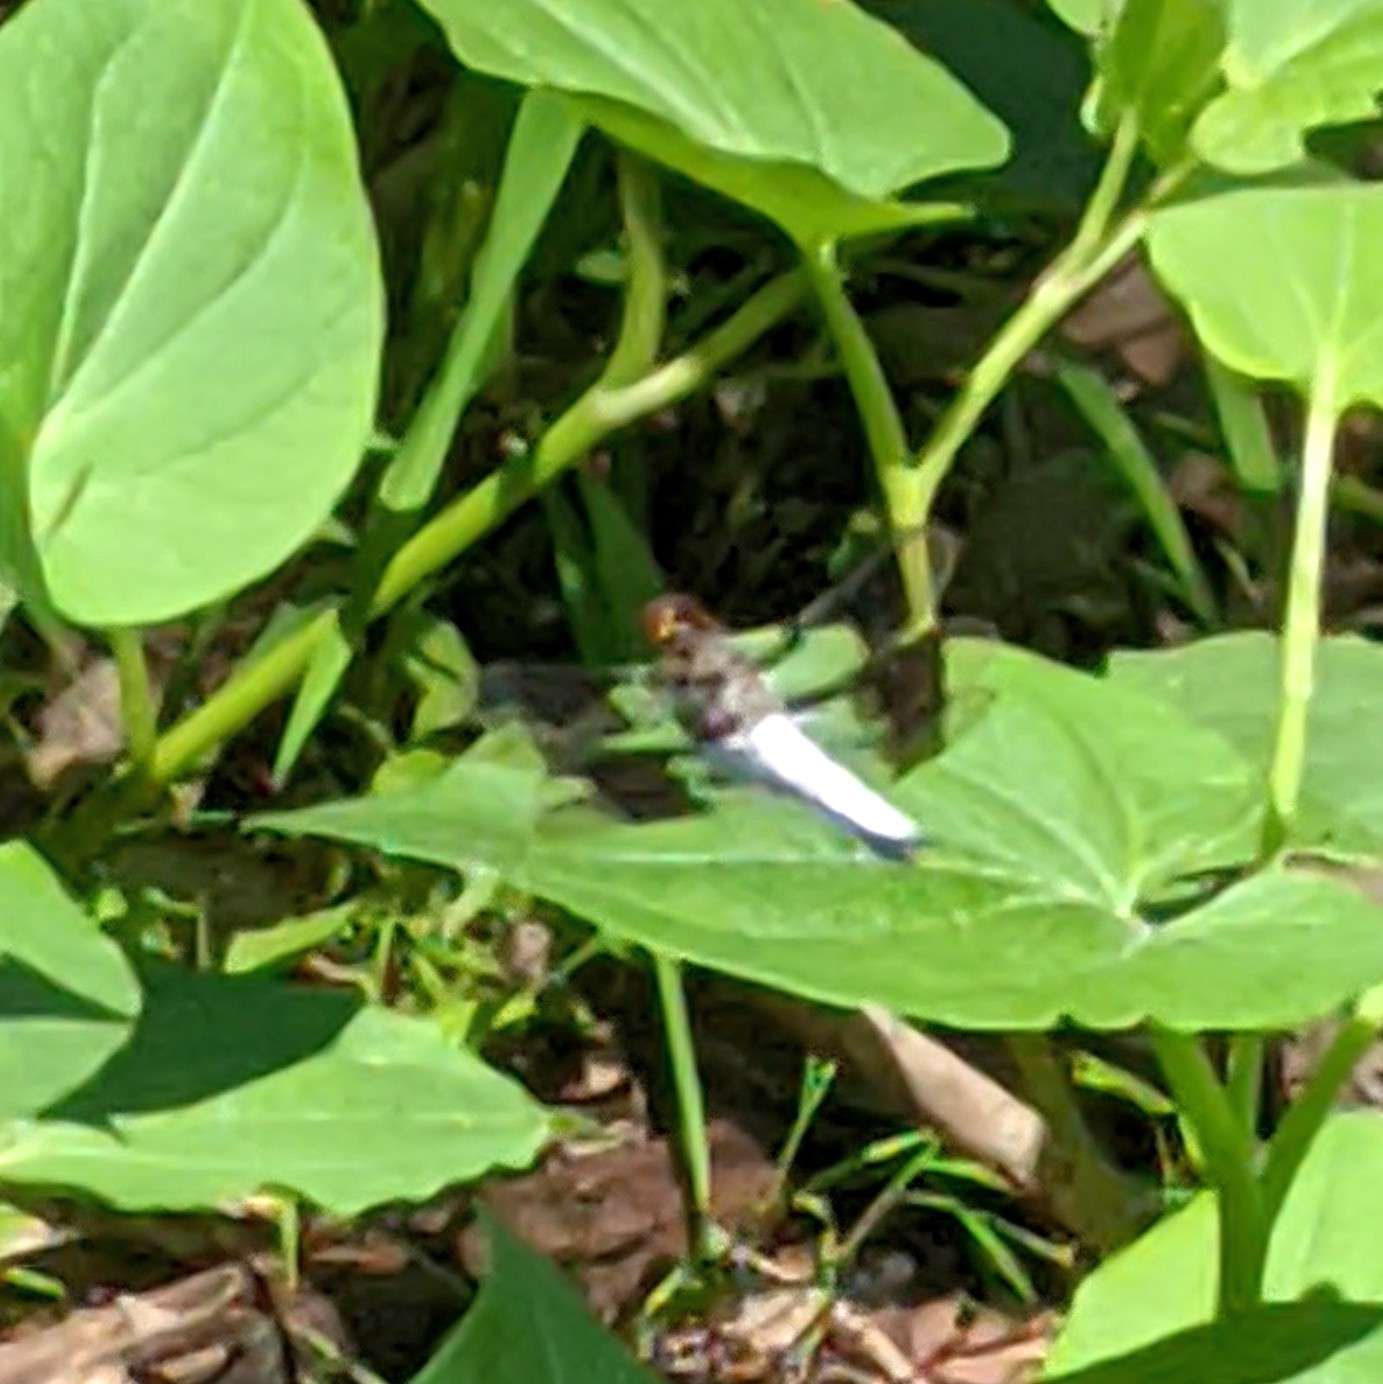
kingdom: Animalia
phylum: Arthropoda
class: Insecta
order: Odonata
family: Libellulidae
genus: Plathemis
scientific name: Plathemis lydia
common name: Common whitetail
